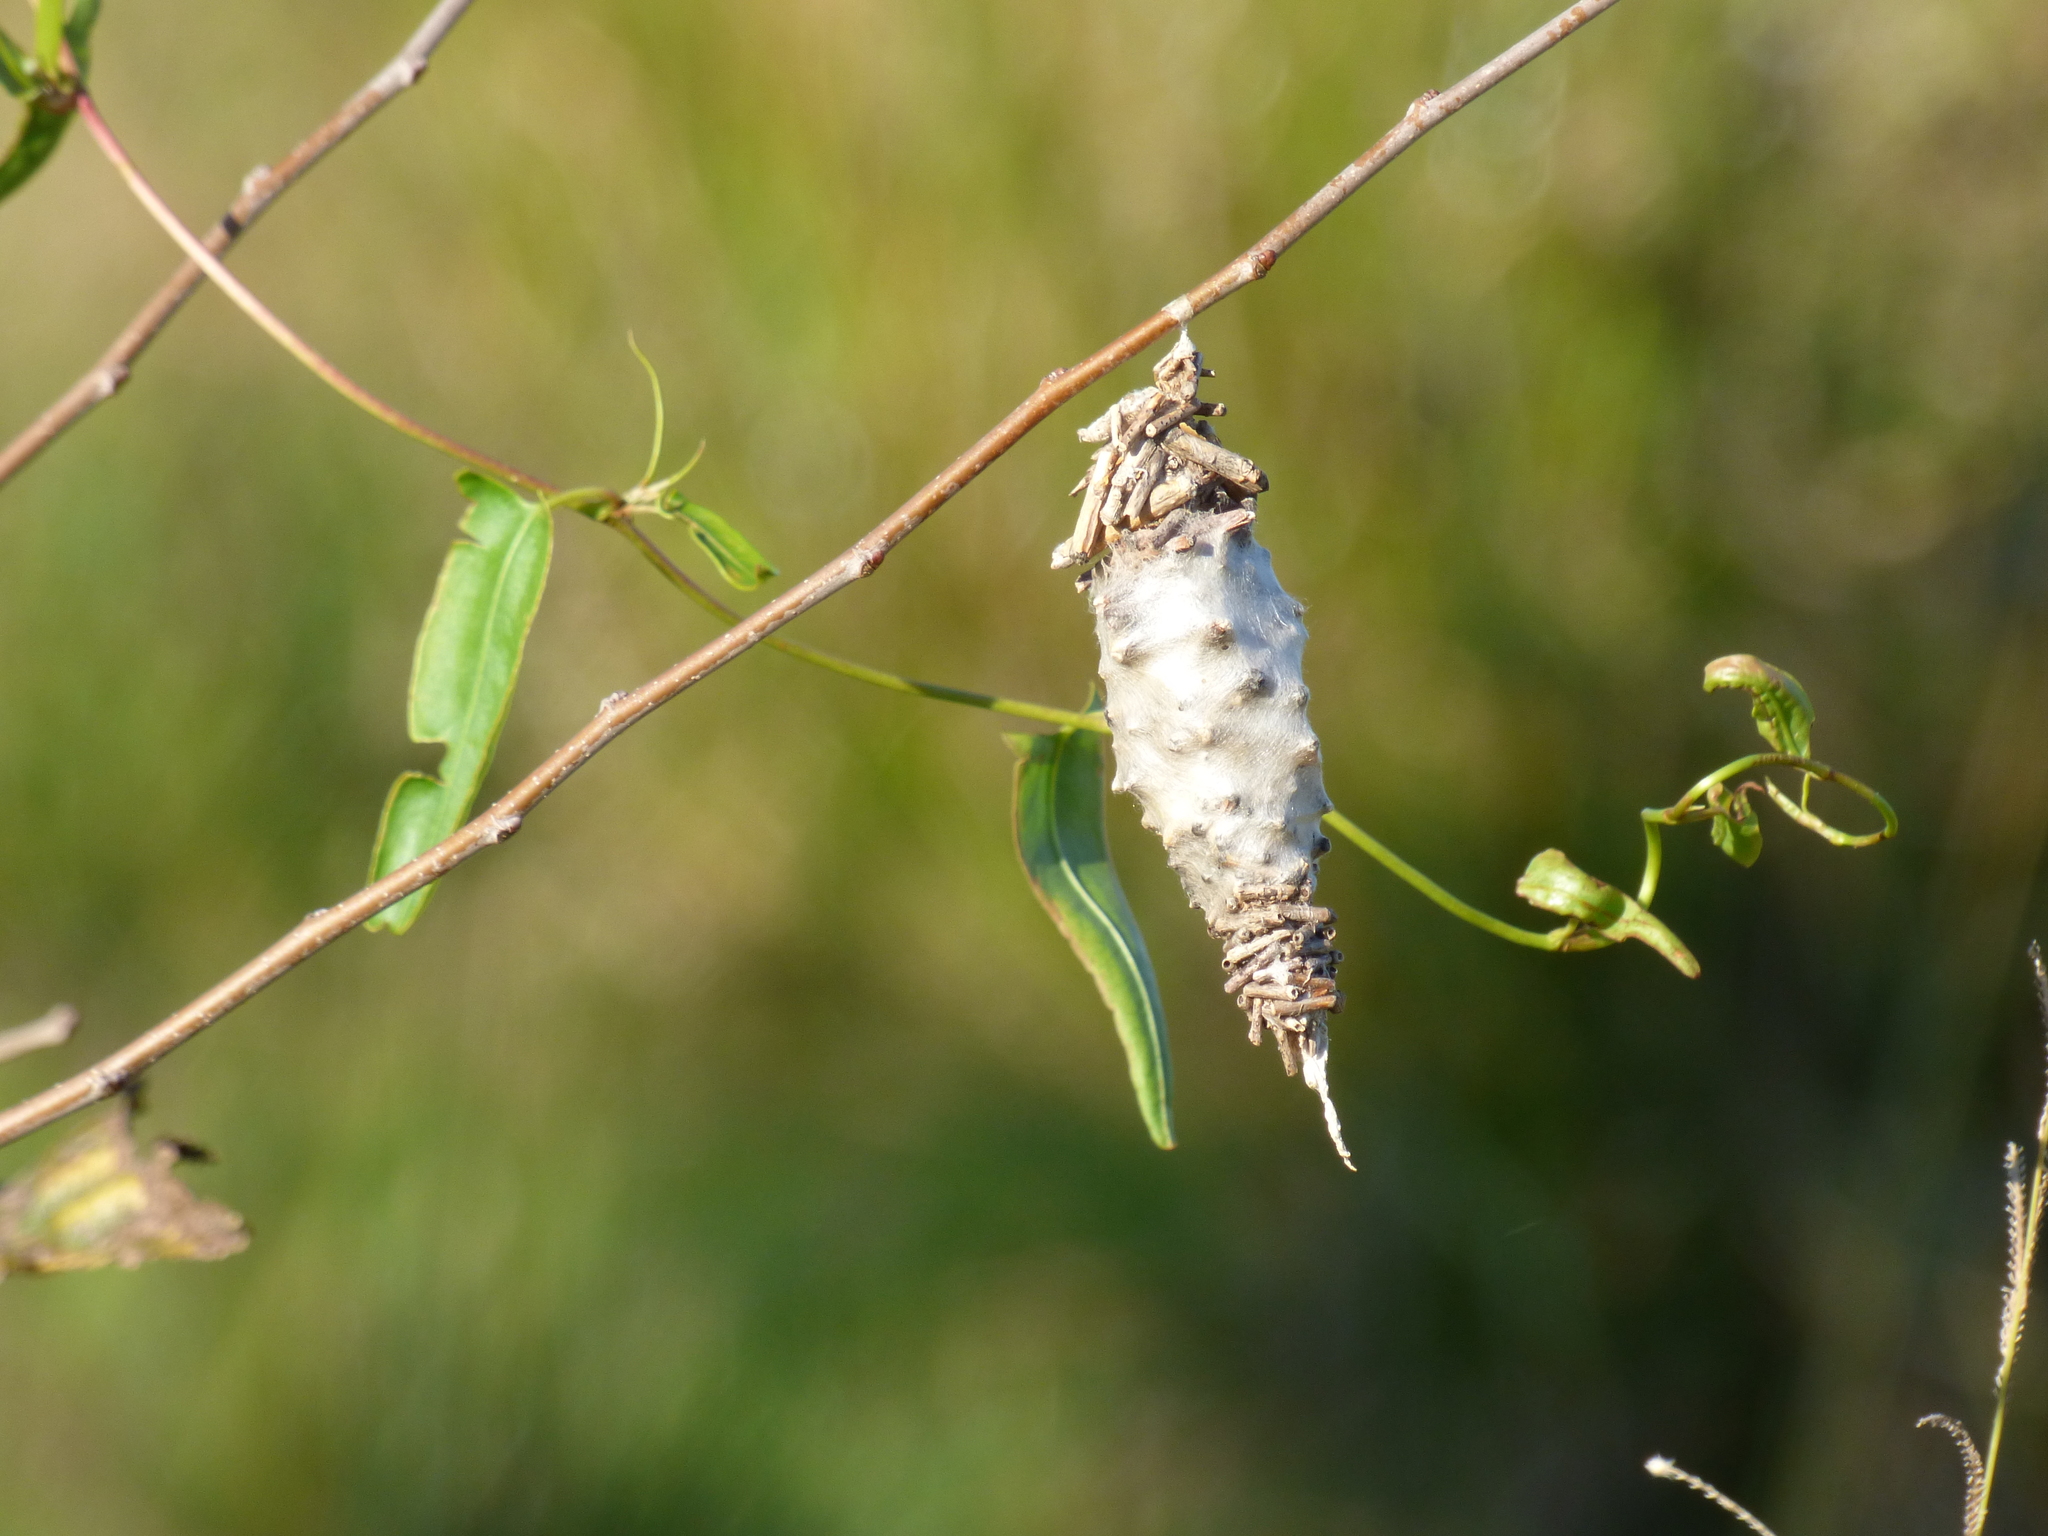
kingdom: Animalia
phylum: Arthropoda
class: Insecta
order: Lepidoptera
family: Psychidae
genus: Oiketicus
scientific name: Oiketicus
